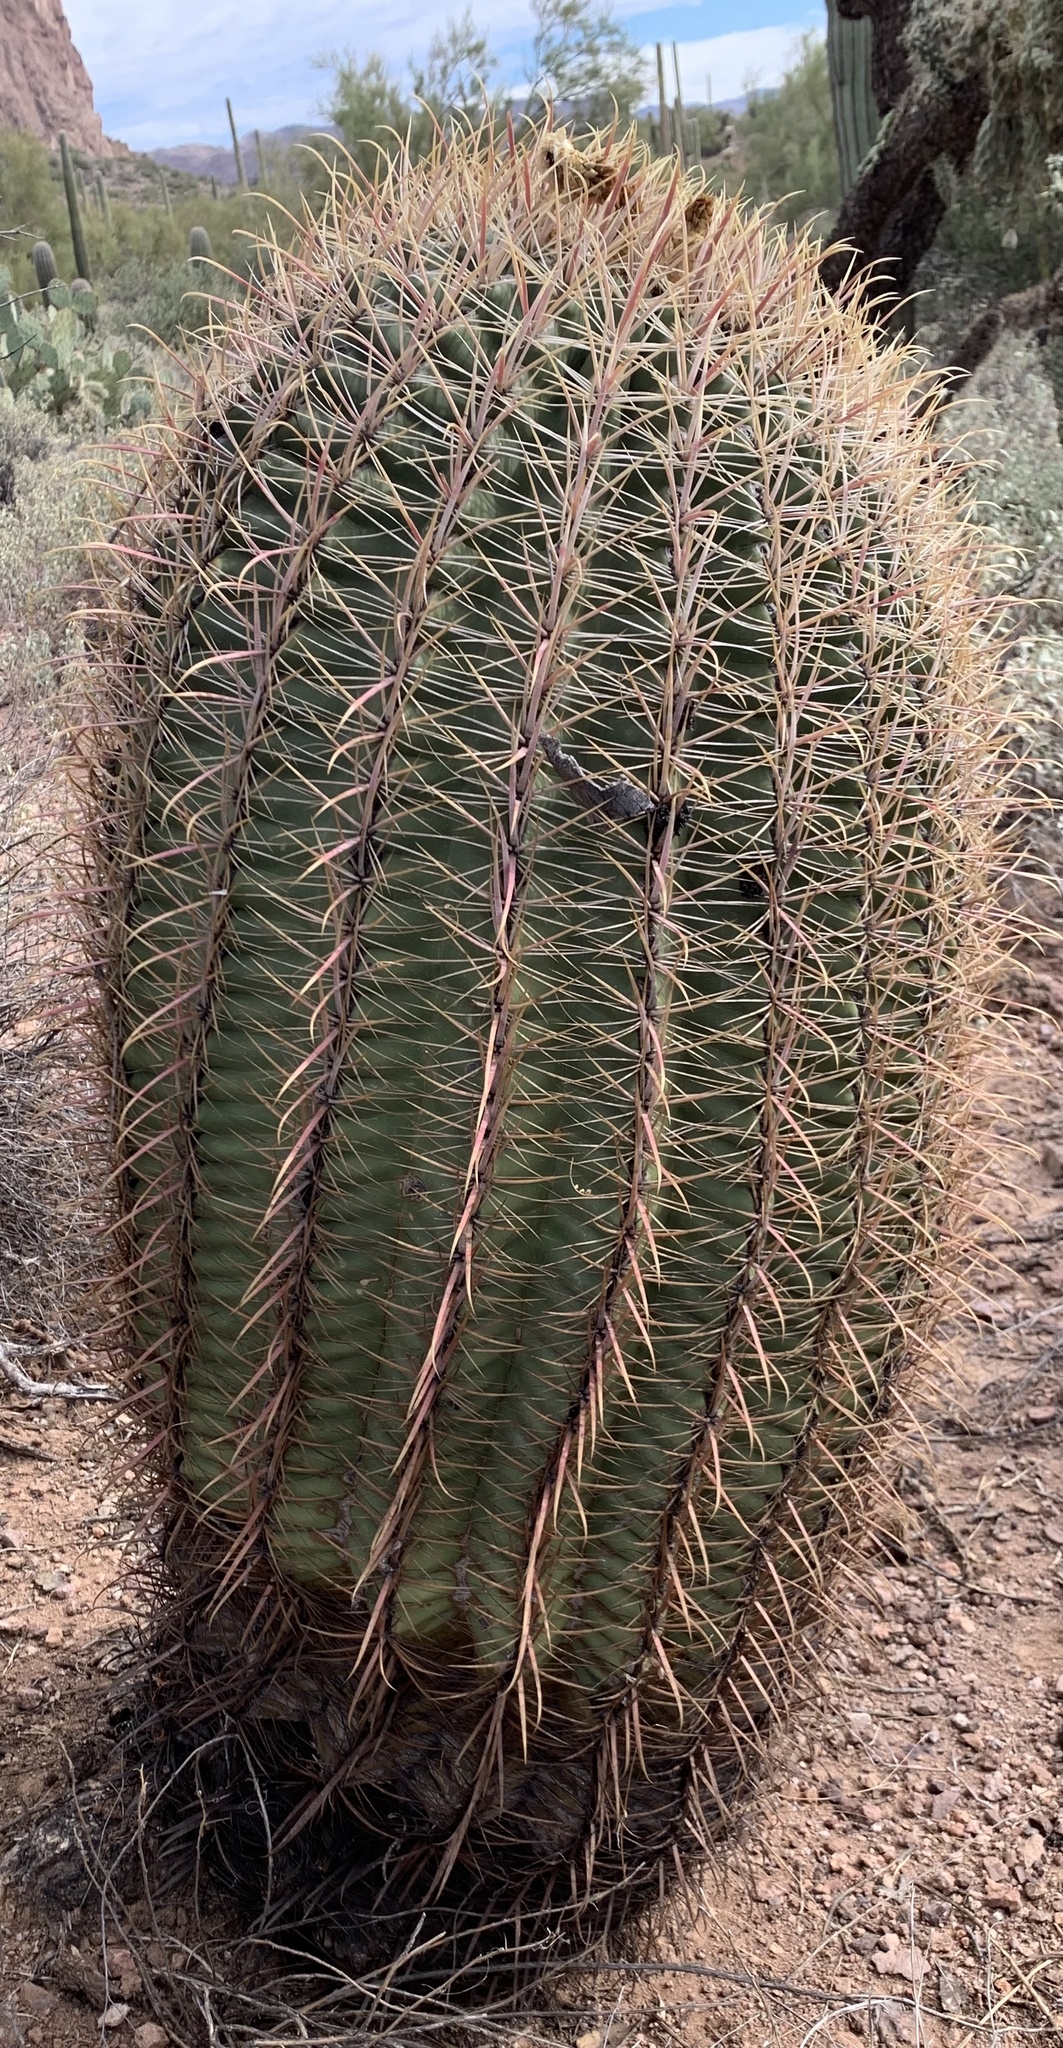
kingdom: Plantae
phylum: Tracheophyta
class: Magnoliopsida
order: Caryophyllales
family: Cactaceae
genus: Ferocactus
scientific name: Ferocactus cylindraceus
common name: California barrel cactus
